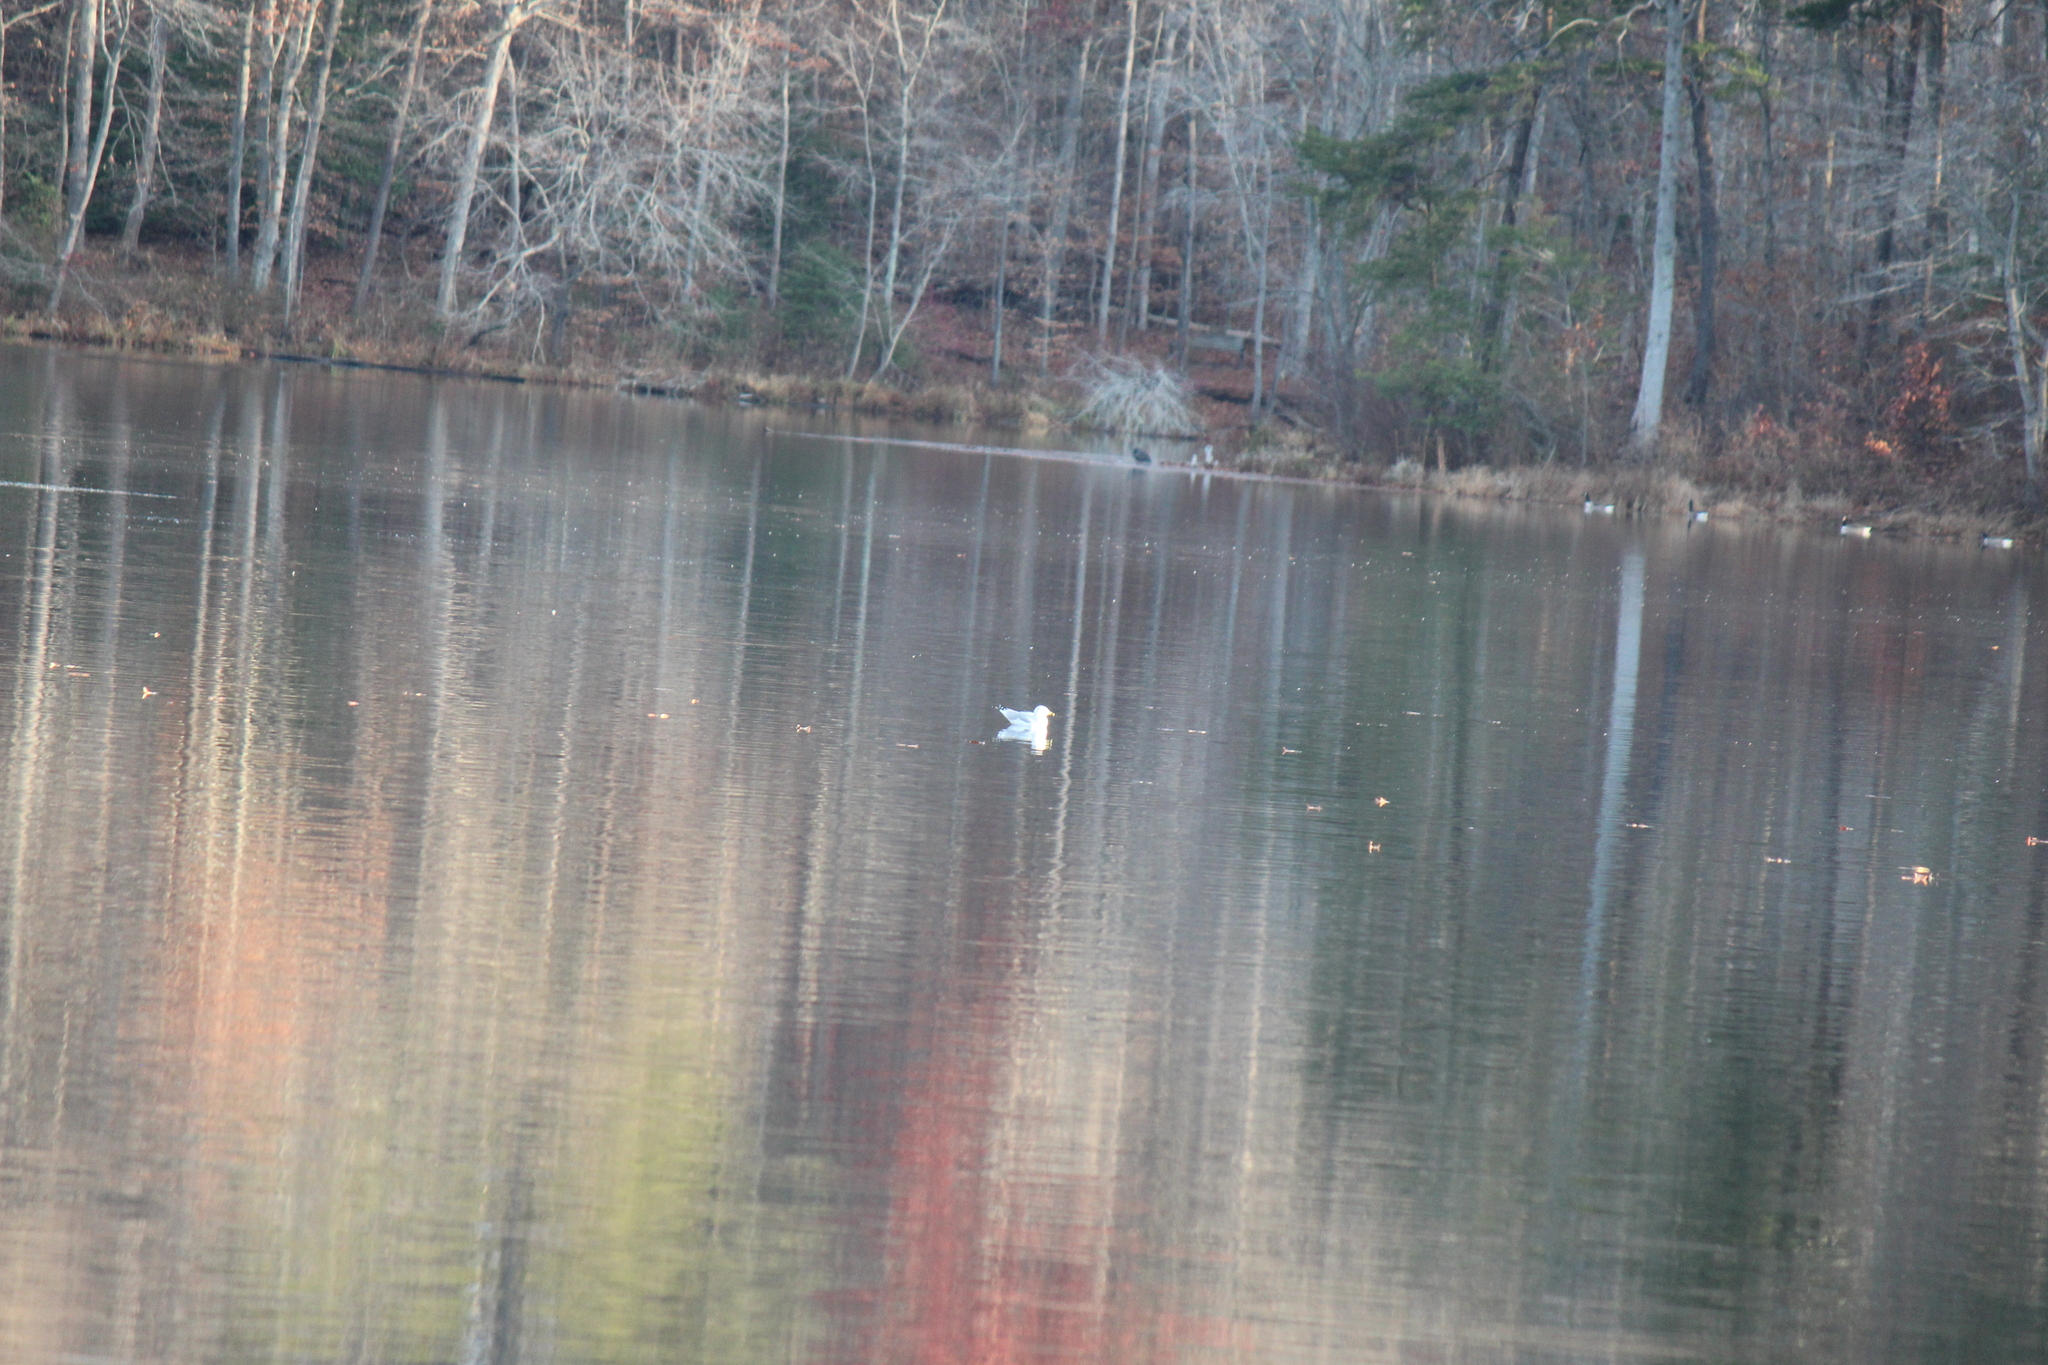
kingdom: Animalia
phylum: Chordata
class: Aves
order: Charadriiformes
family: Laridae
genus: Larus
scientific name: Larus delawarensis
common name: Ring-billed gull
